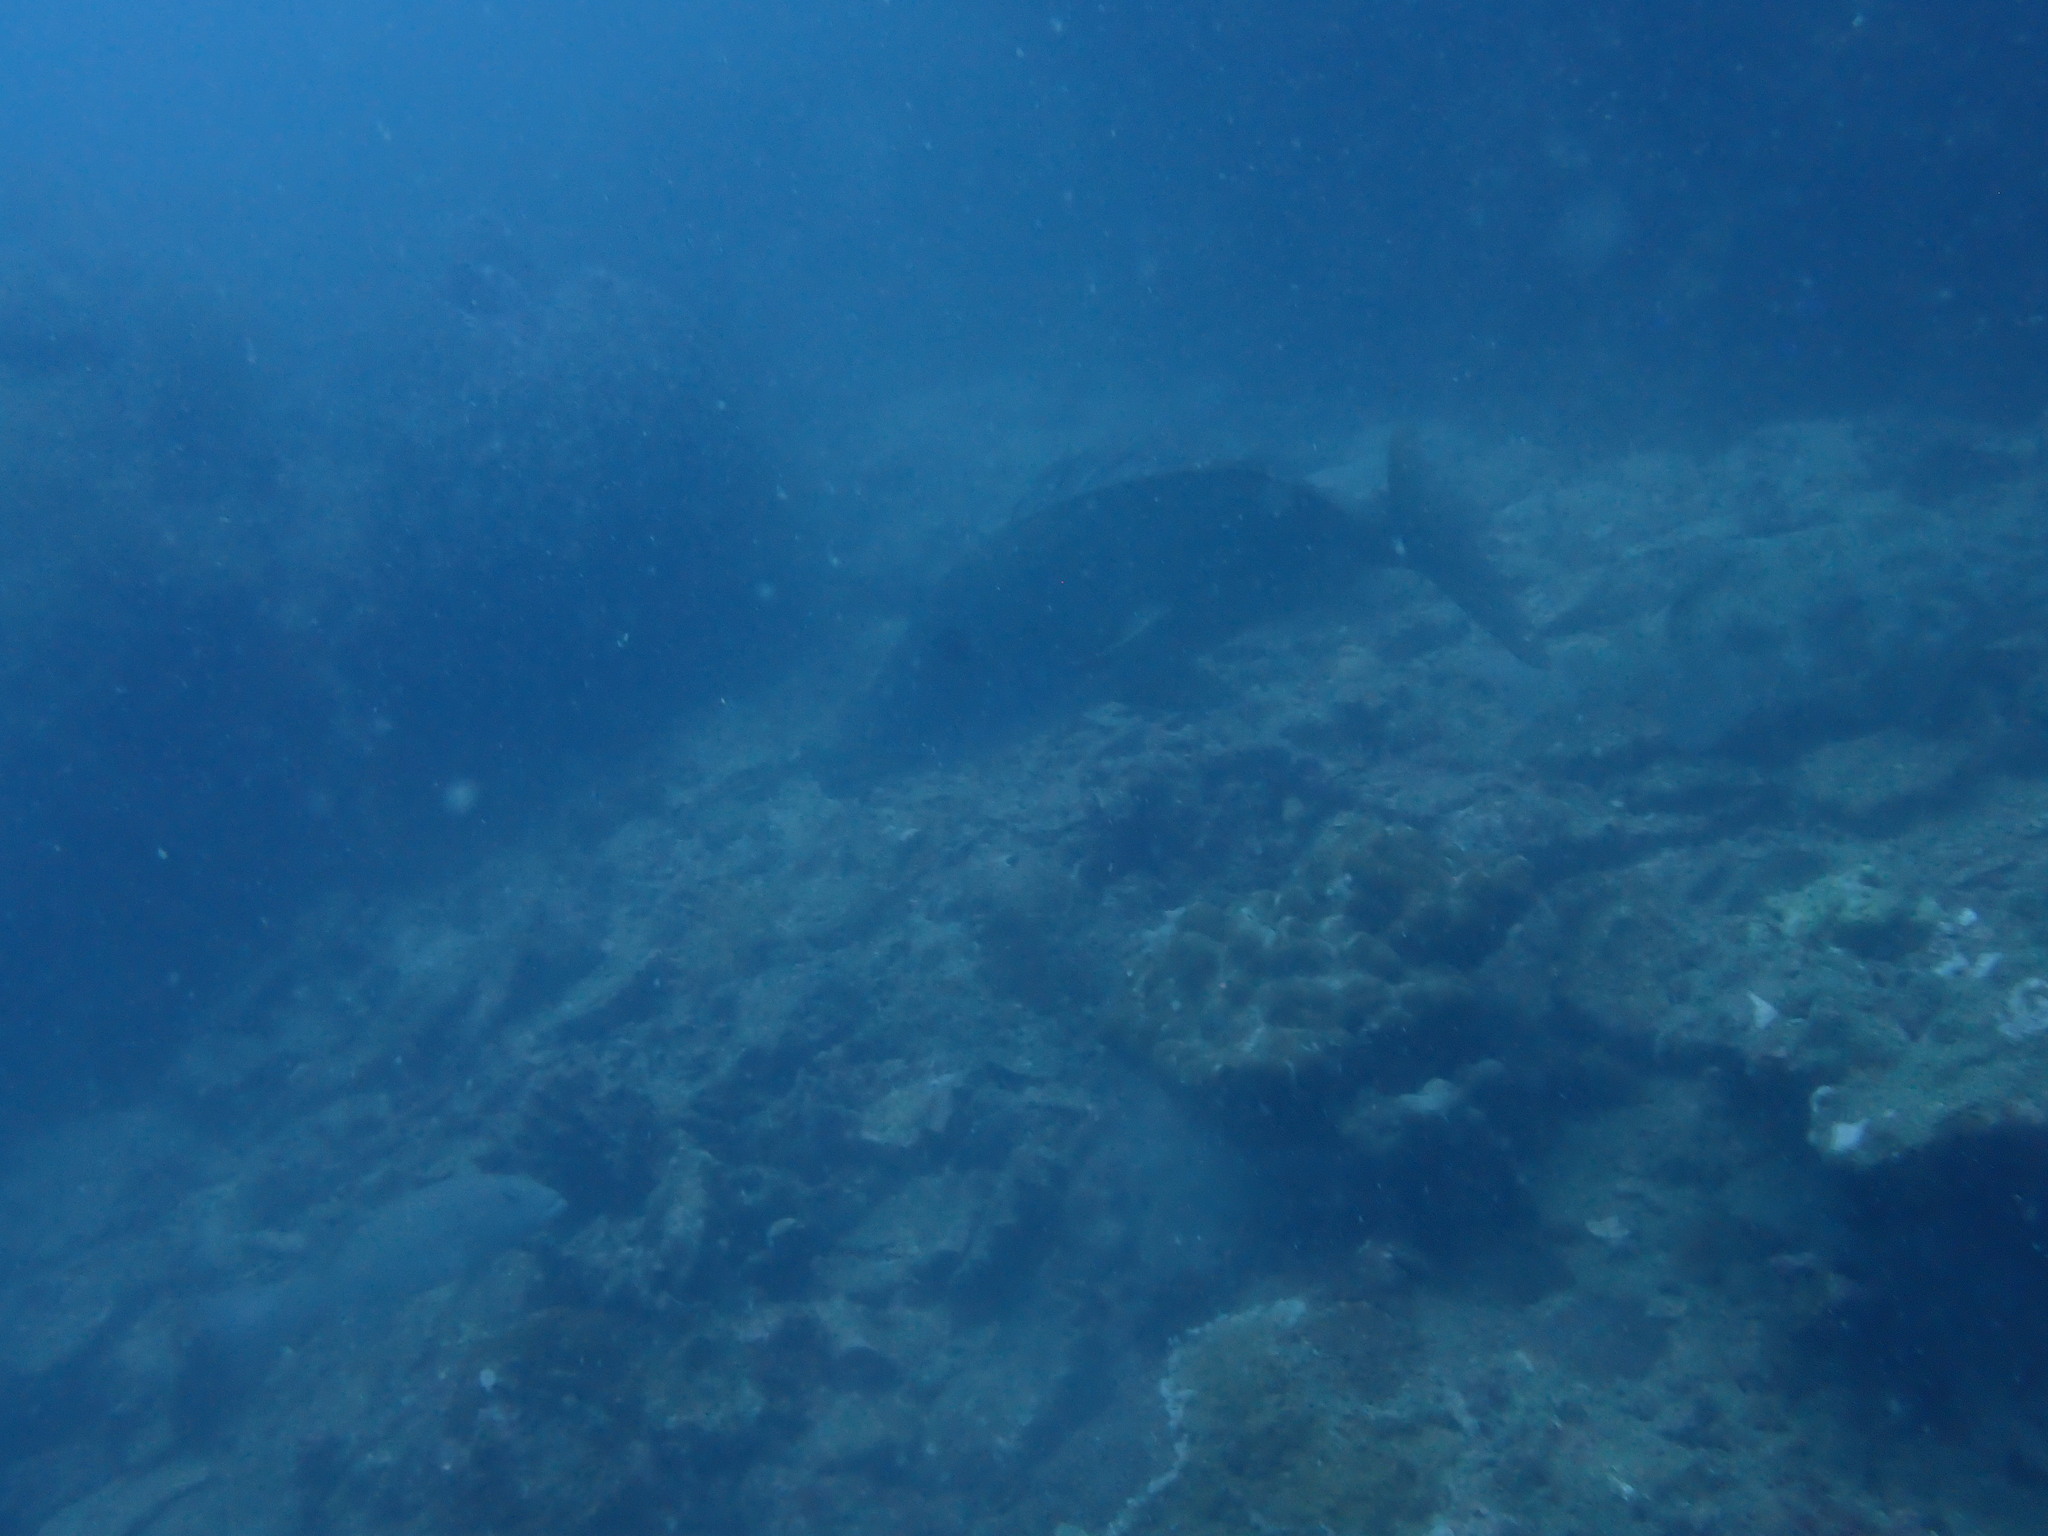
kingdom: Animalia
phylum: Chordata
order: Perciformes
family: Lethrinidae
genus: Lethrinus
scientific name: Lethrinus olivaceus
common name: Longnose emperor
